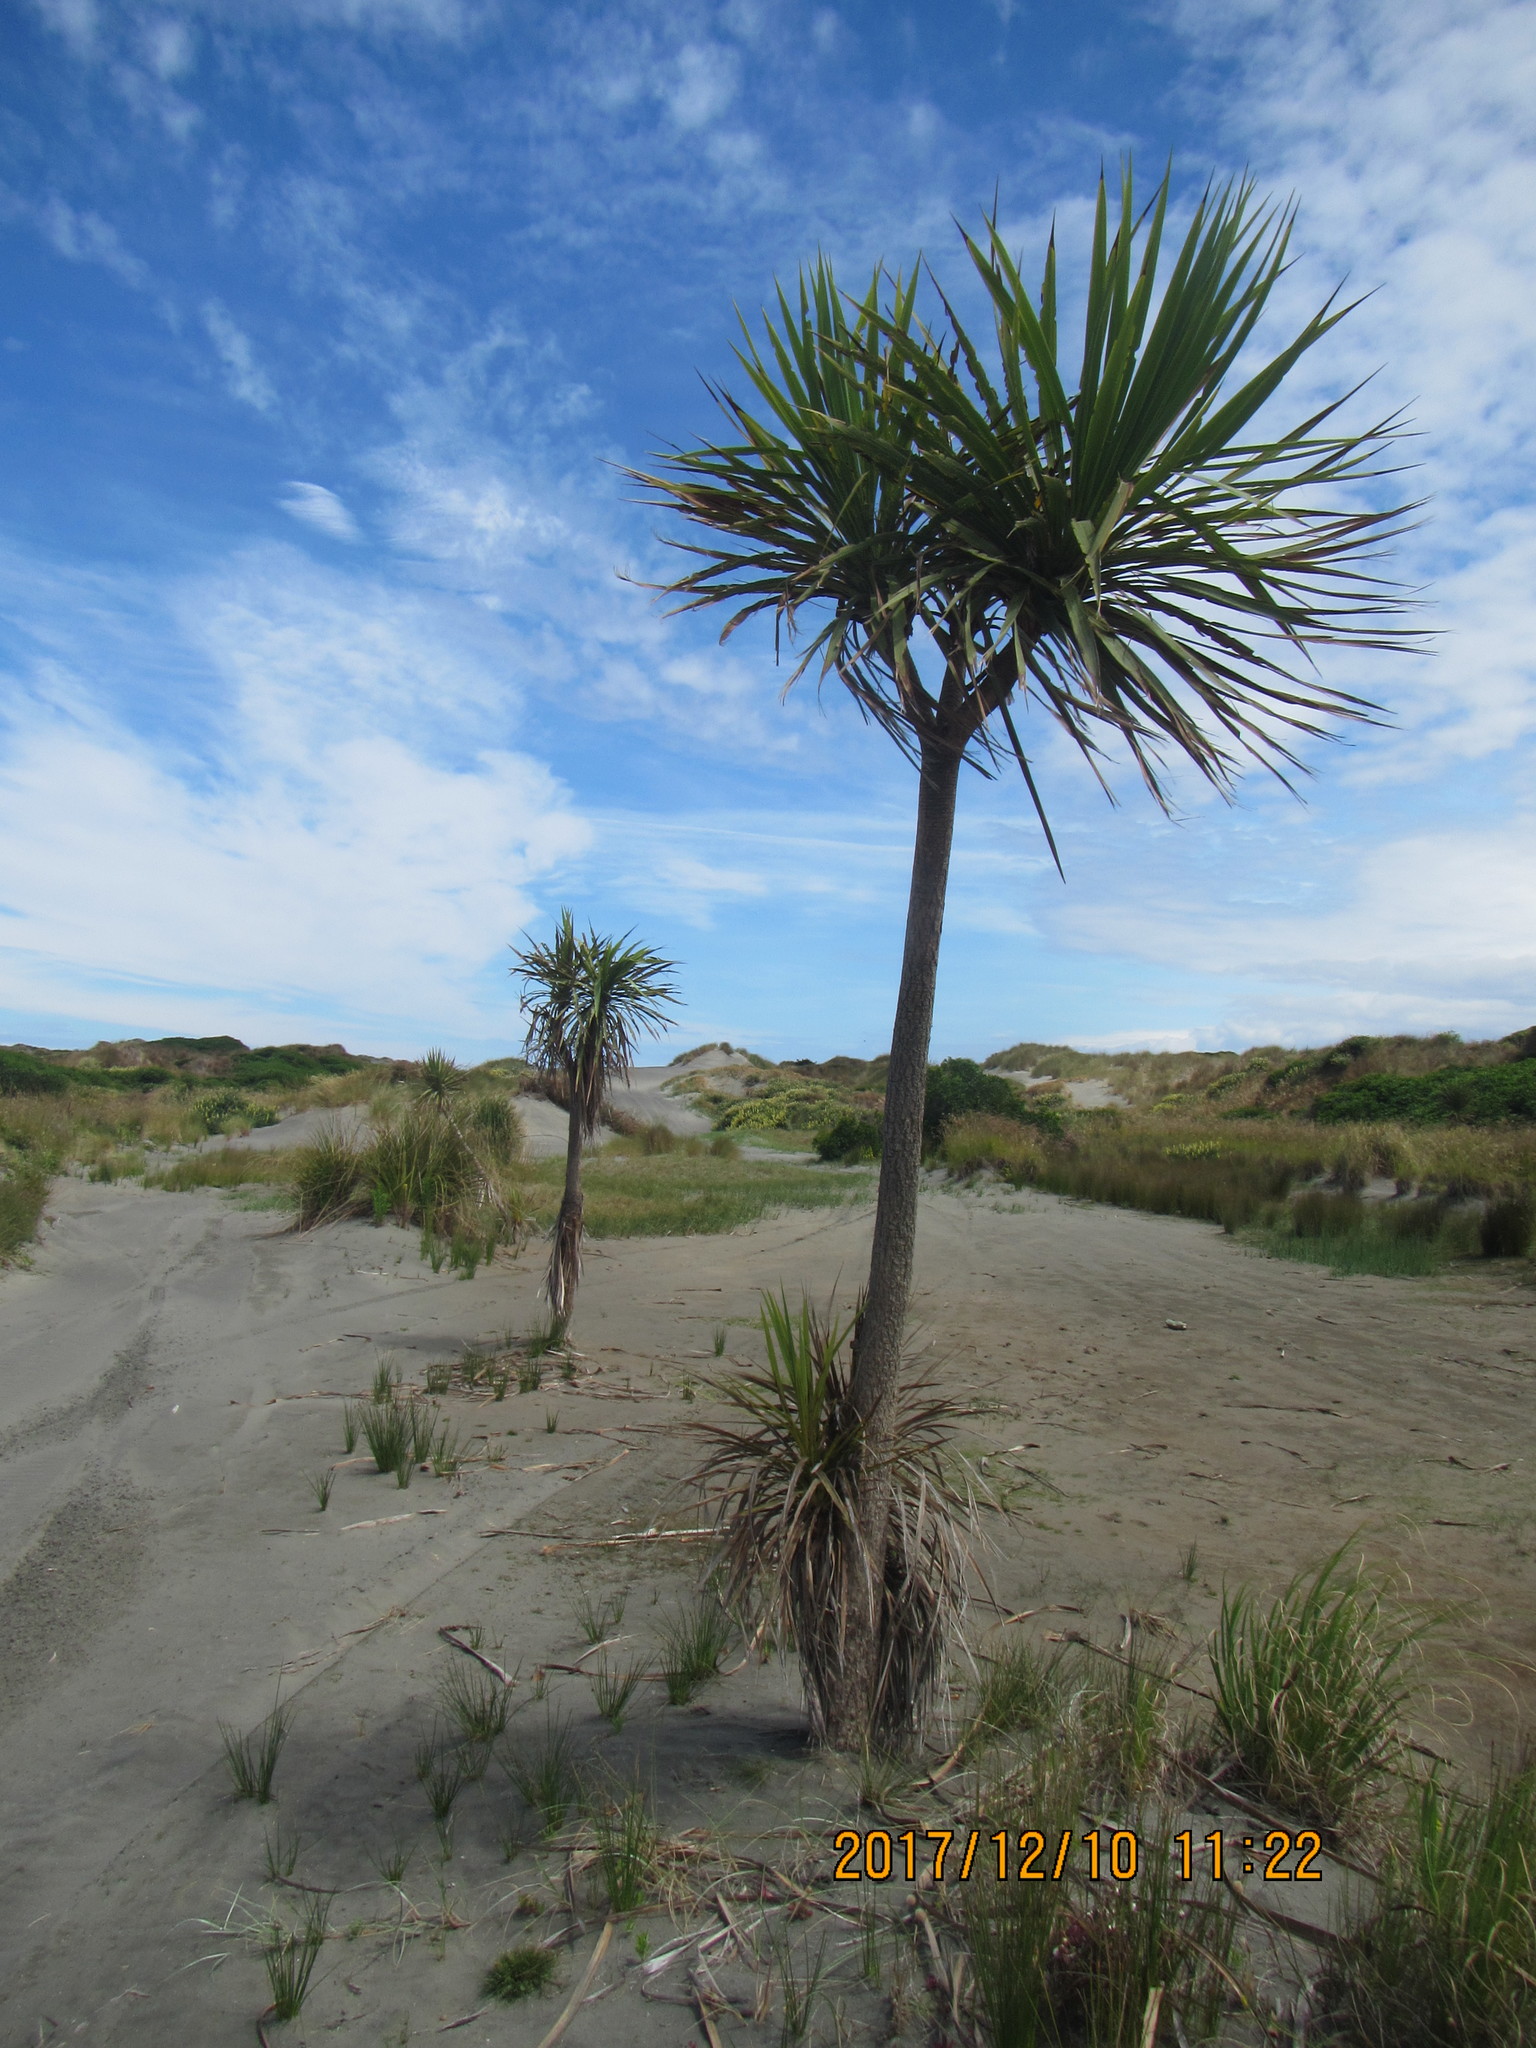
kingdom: Plantae
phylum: Tracheophyta
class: Liliopsida
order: Asparagales
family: Asparagaceae
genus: Cordyline
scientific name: Cordyline australis
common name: Cabbage-palm
